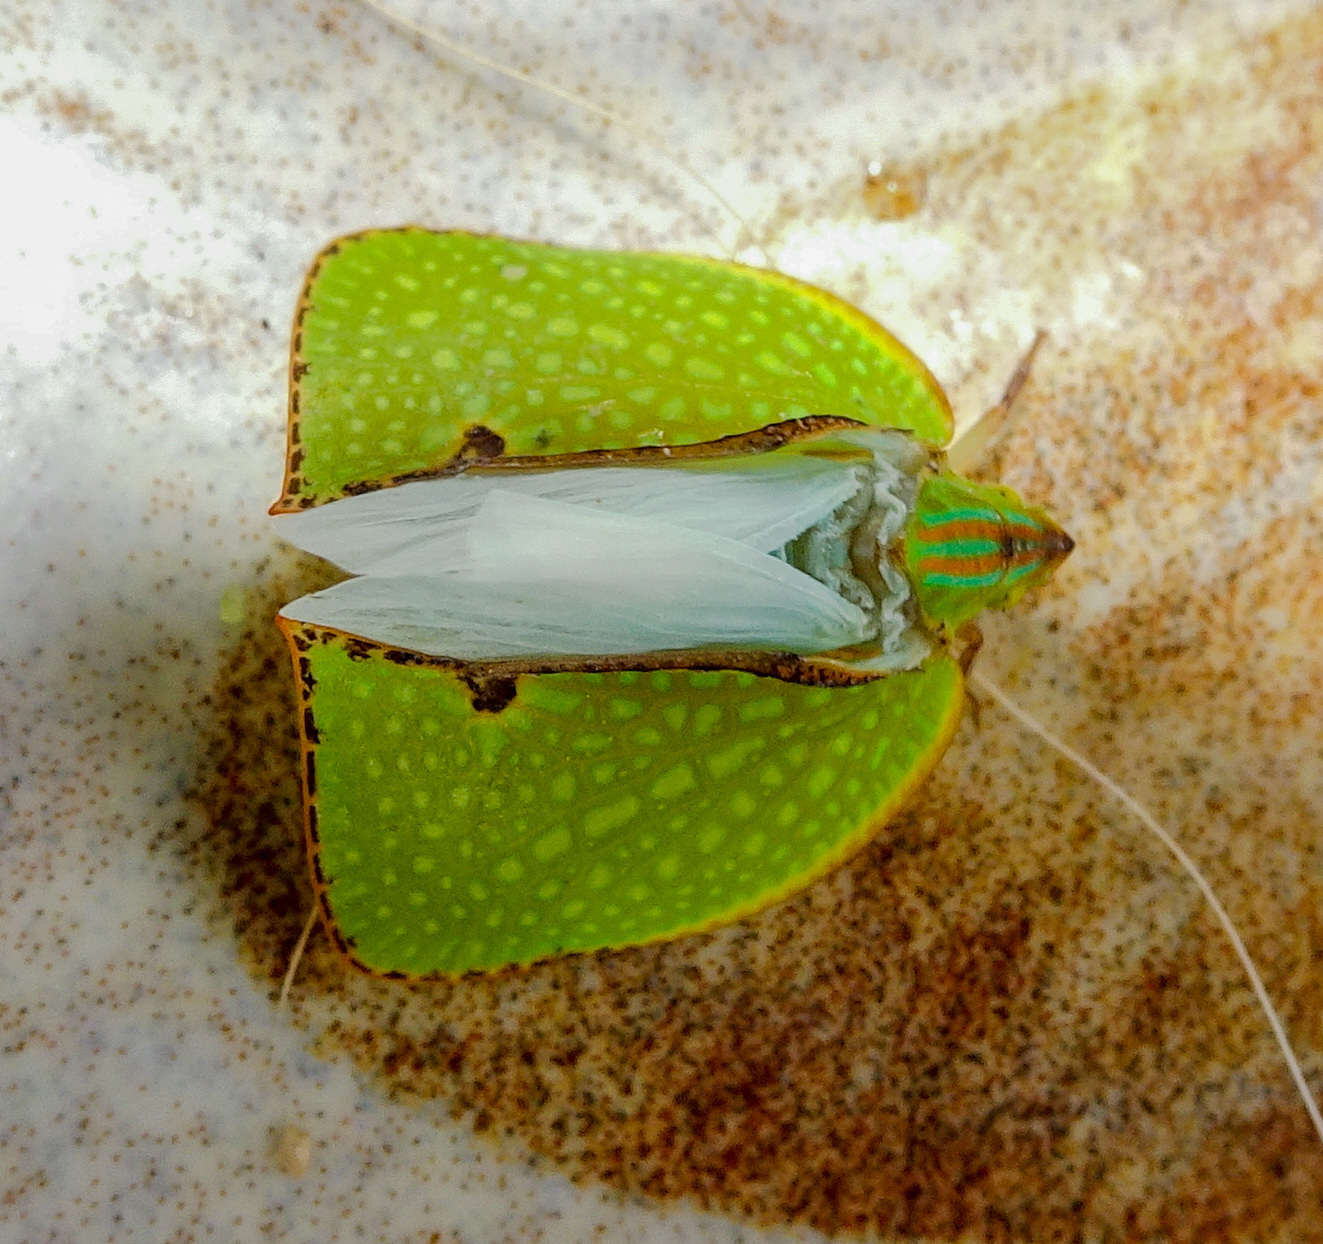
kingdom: Animalia
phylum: Arthropoda
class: Insecta
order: Hemiptera
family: Flatidae
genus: Salurnis
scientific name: Salurnis marginella
